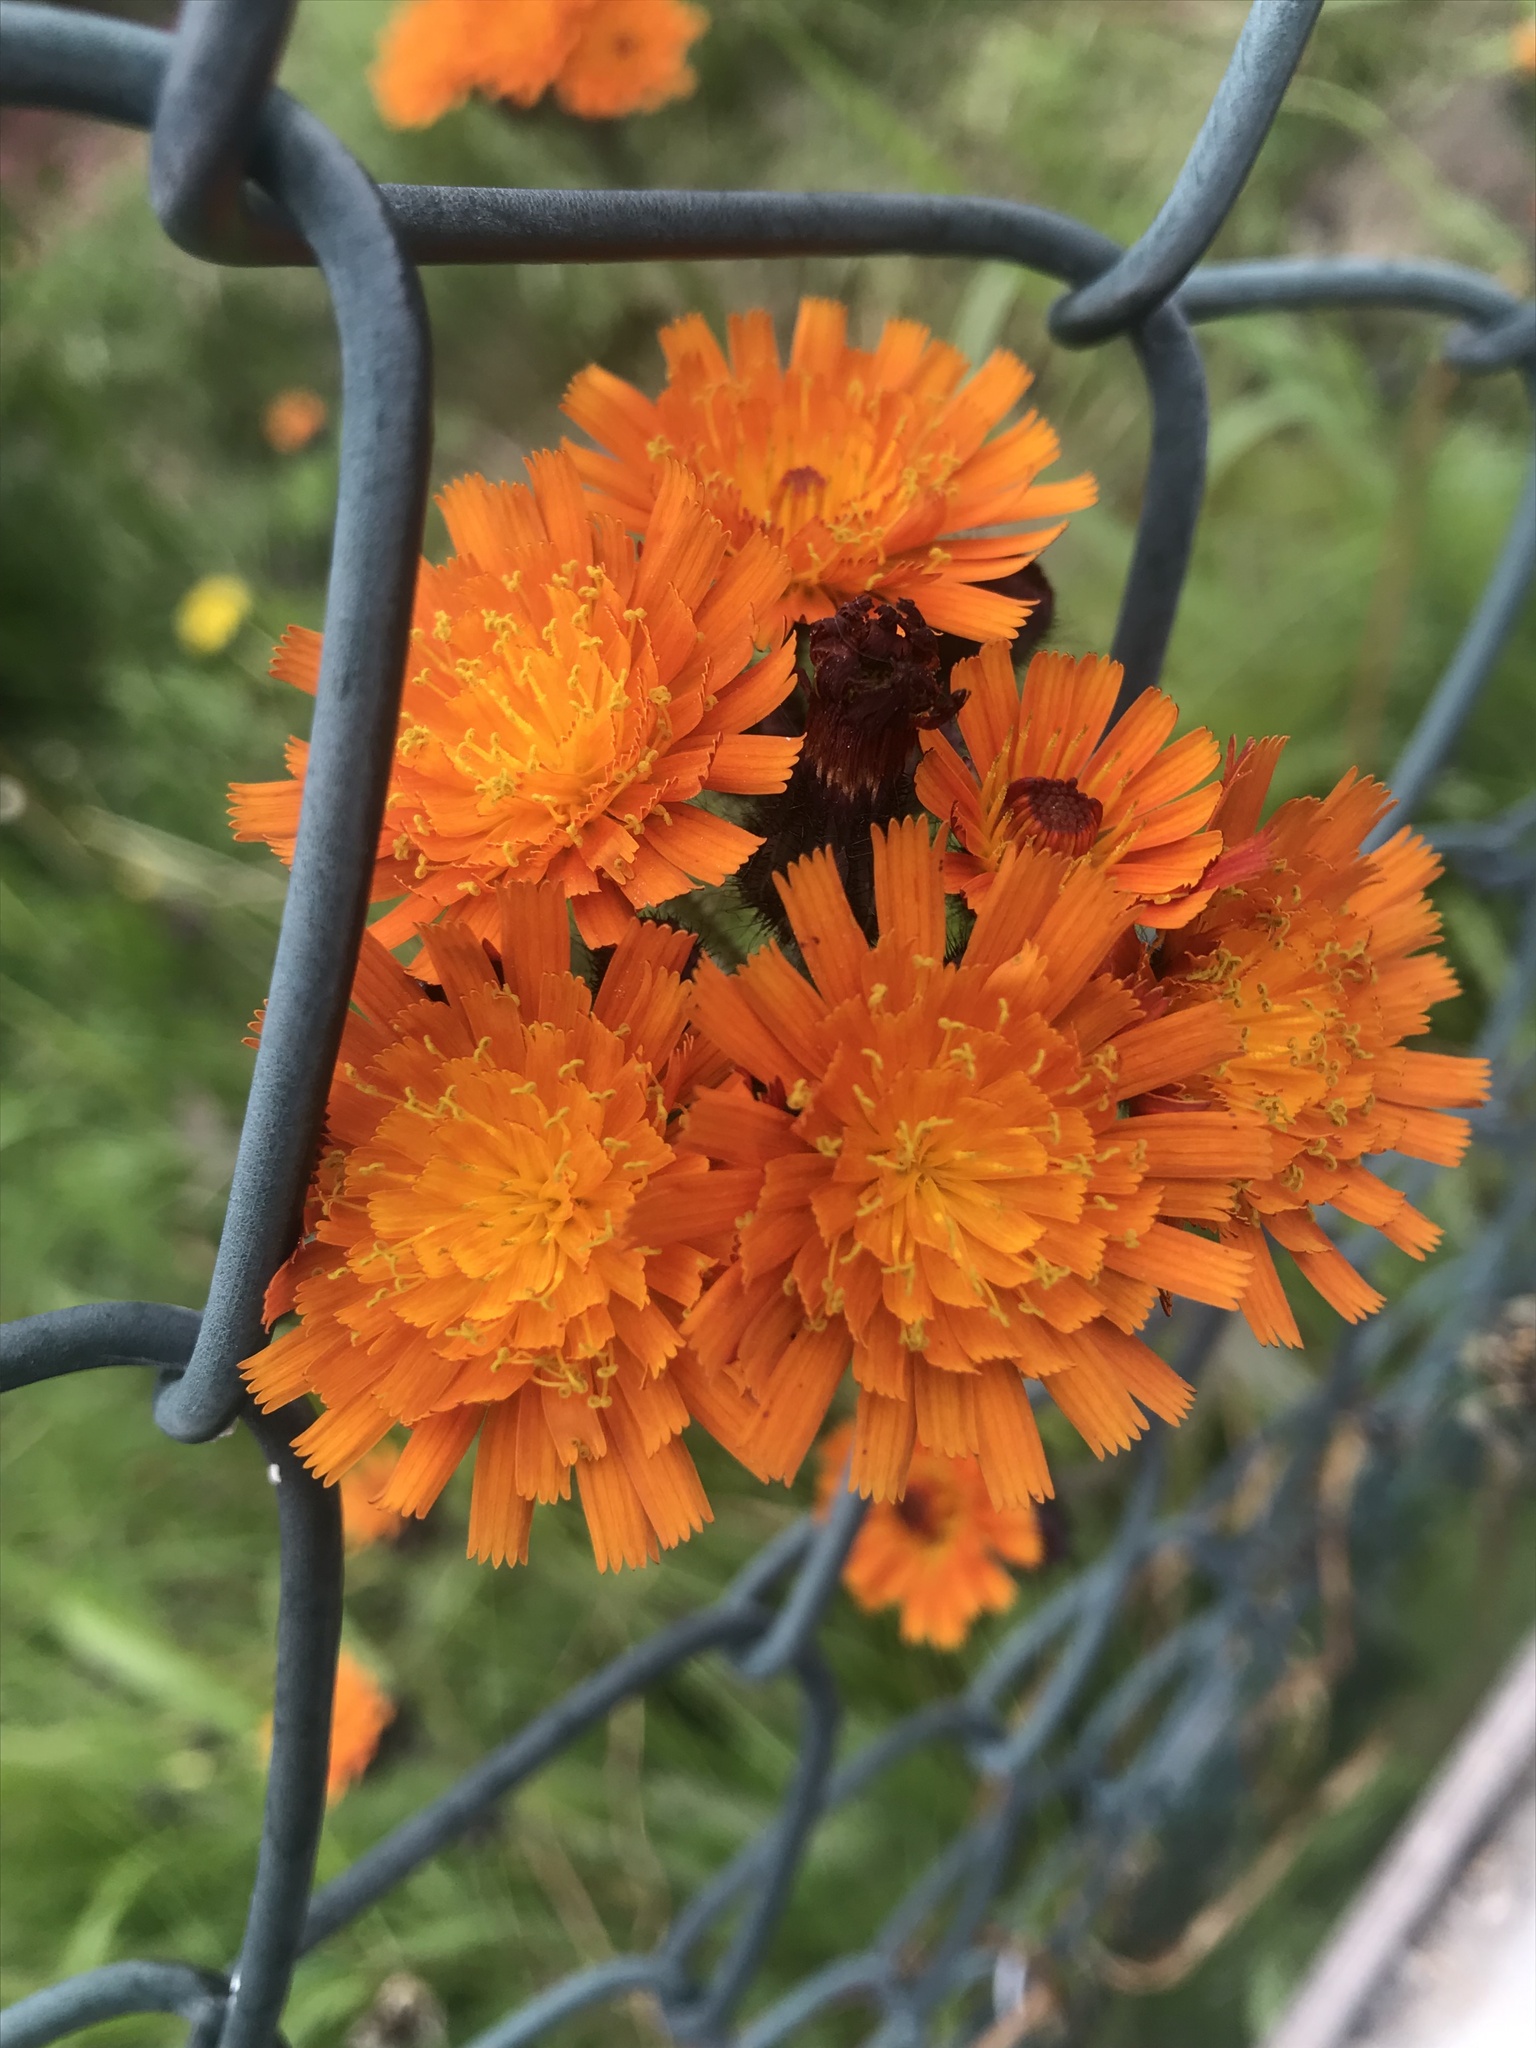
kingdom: Plantae
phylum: Tracheophyta
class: Magnoliopsida
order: Asterales
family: Asteraceae
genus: Pilosella
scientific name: Pilosella aurantiaca
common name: Fox-and-cubs
